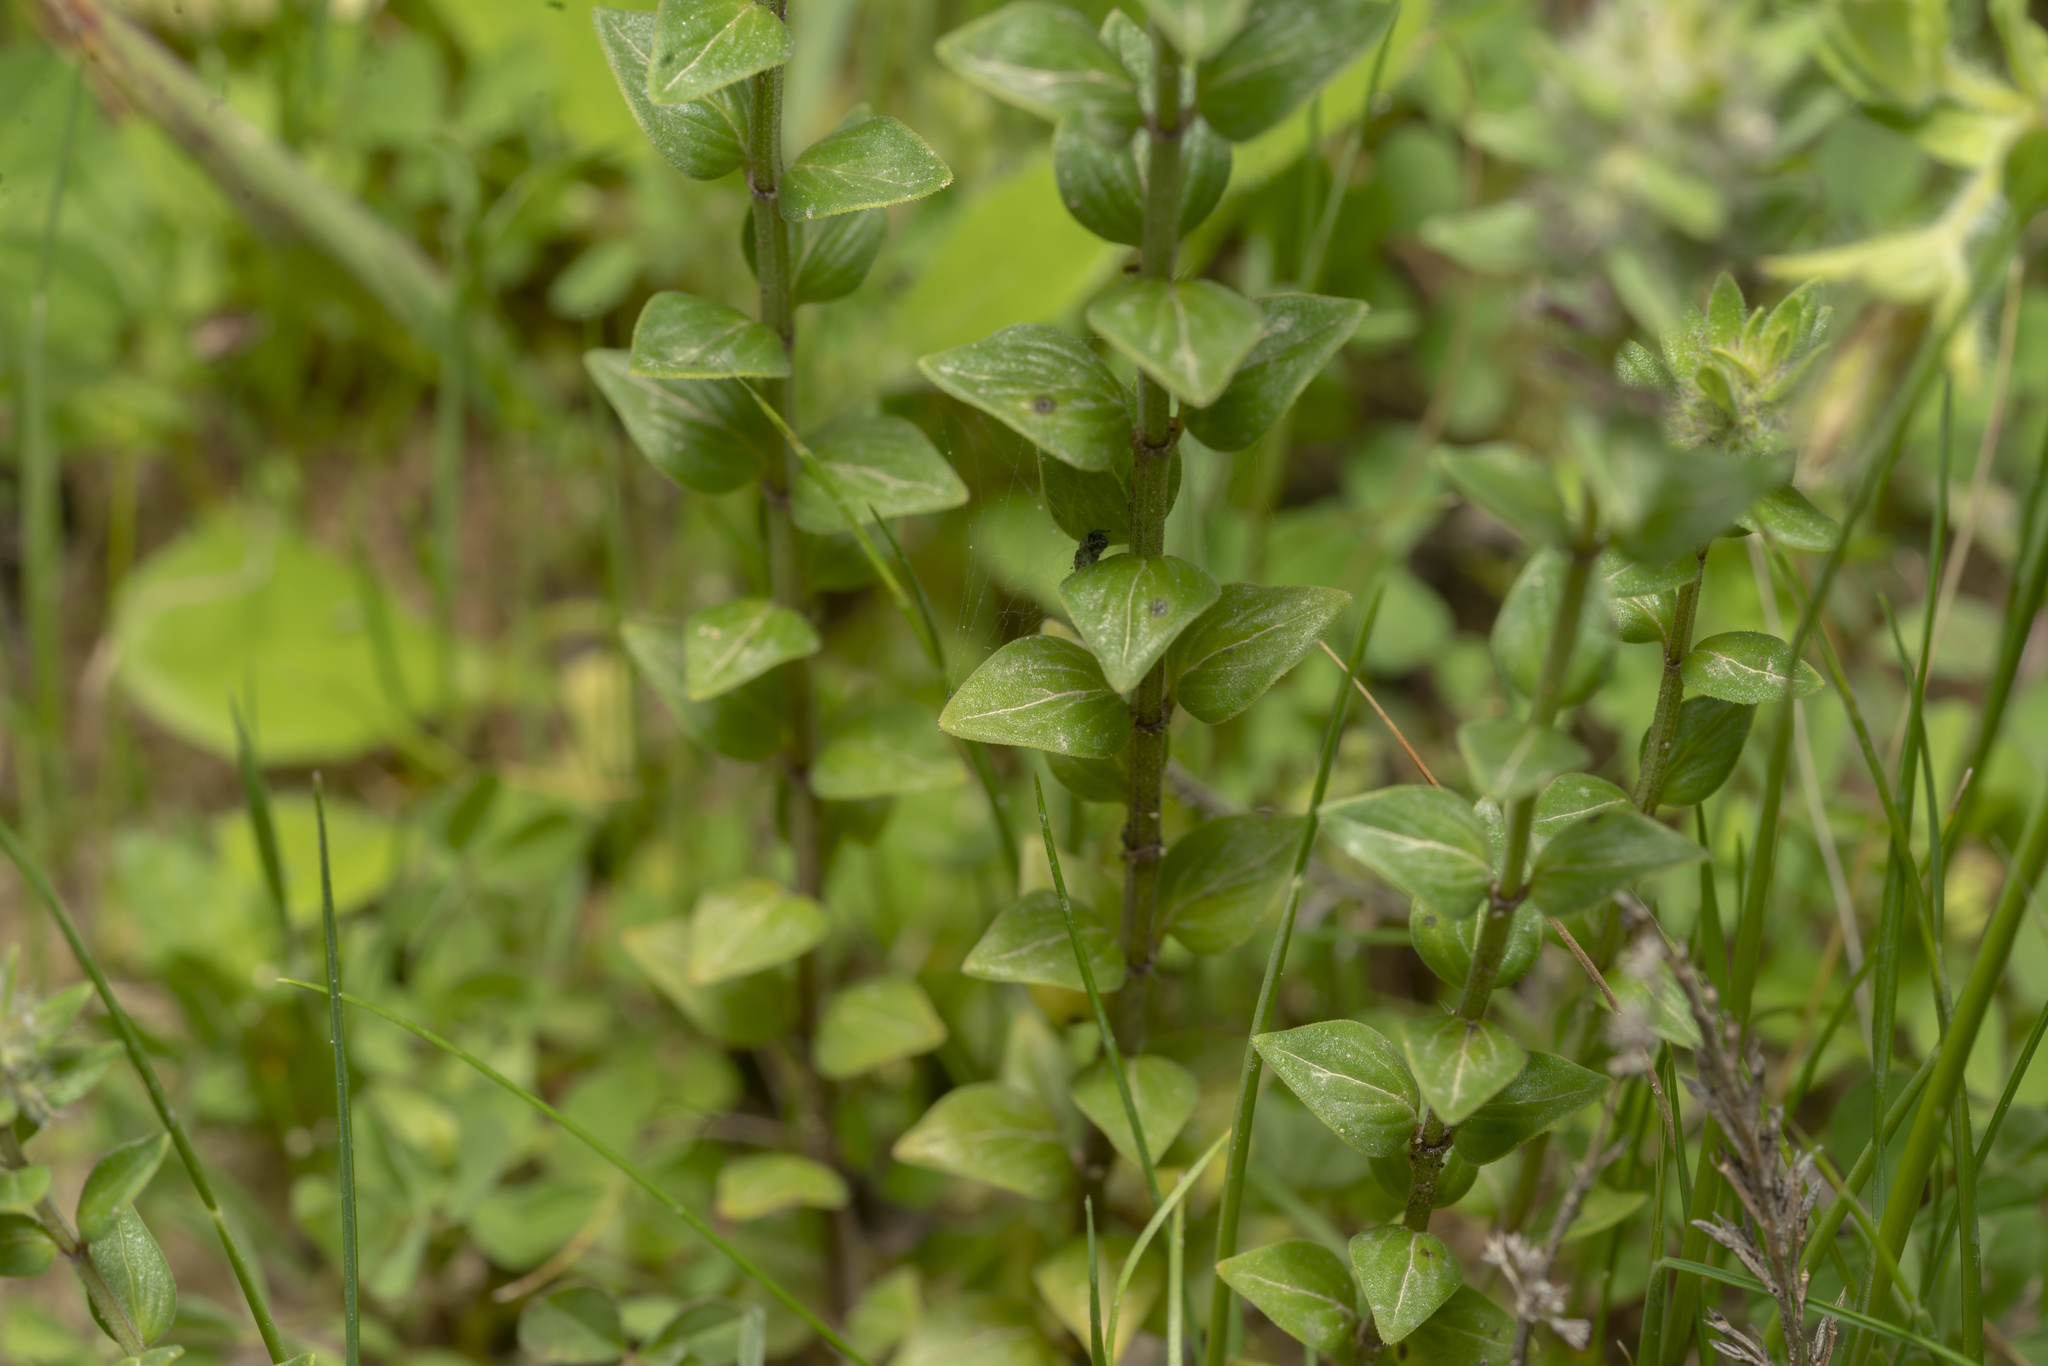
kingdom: Plantae
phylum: Tracheophyta
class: Magnoliopsida
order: Lamiales
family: Lamiaceae
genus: Micromeria
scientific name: Micromeria nervosa
